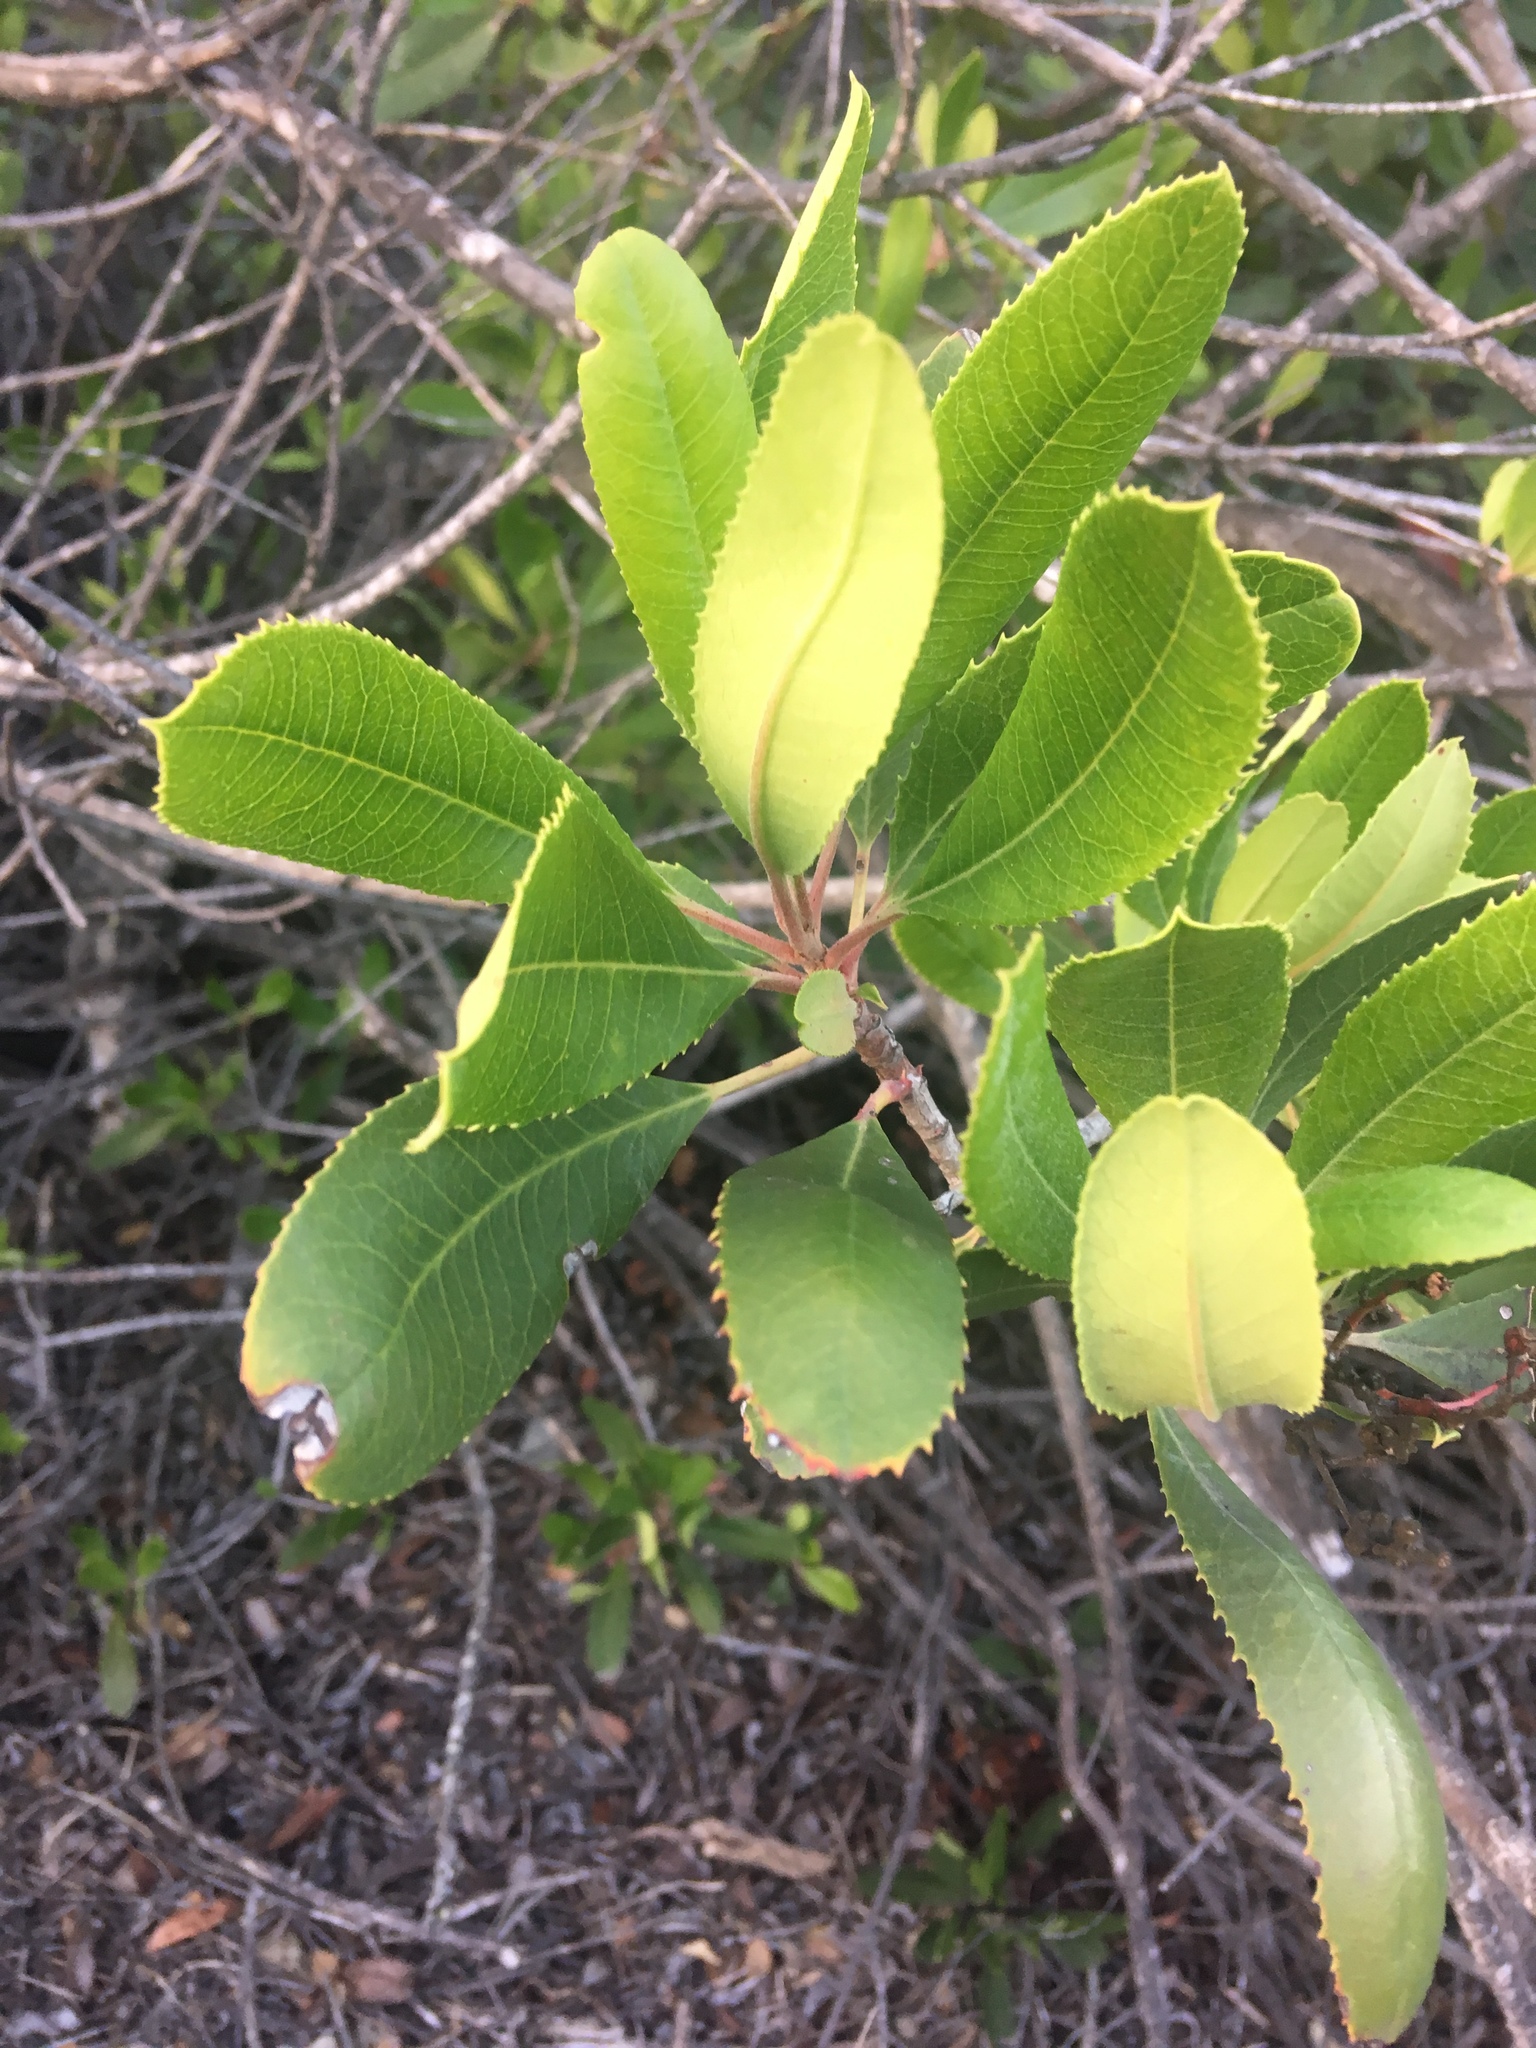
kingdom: Plantae
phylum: Tracheophyta
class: Magnoliopsida
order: Rosales
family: Rosaceae
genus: Heteromeles
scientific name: Heteromeles arbutifolia
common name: California-holly
